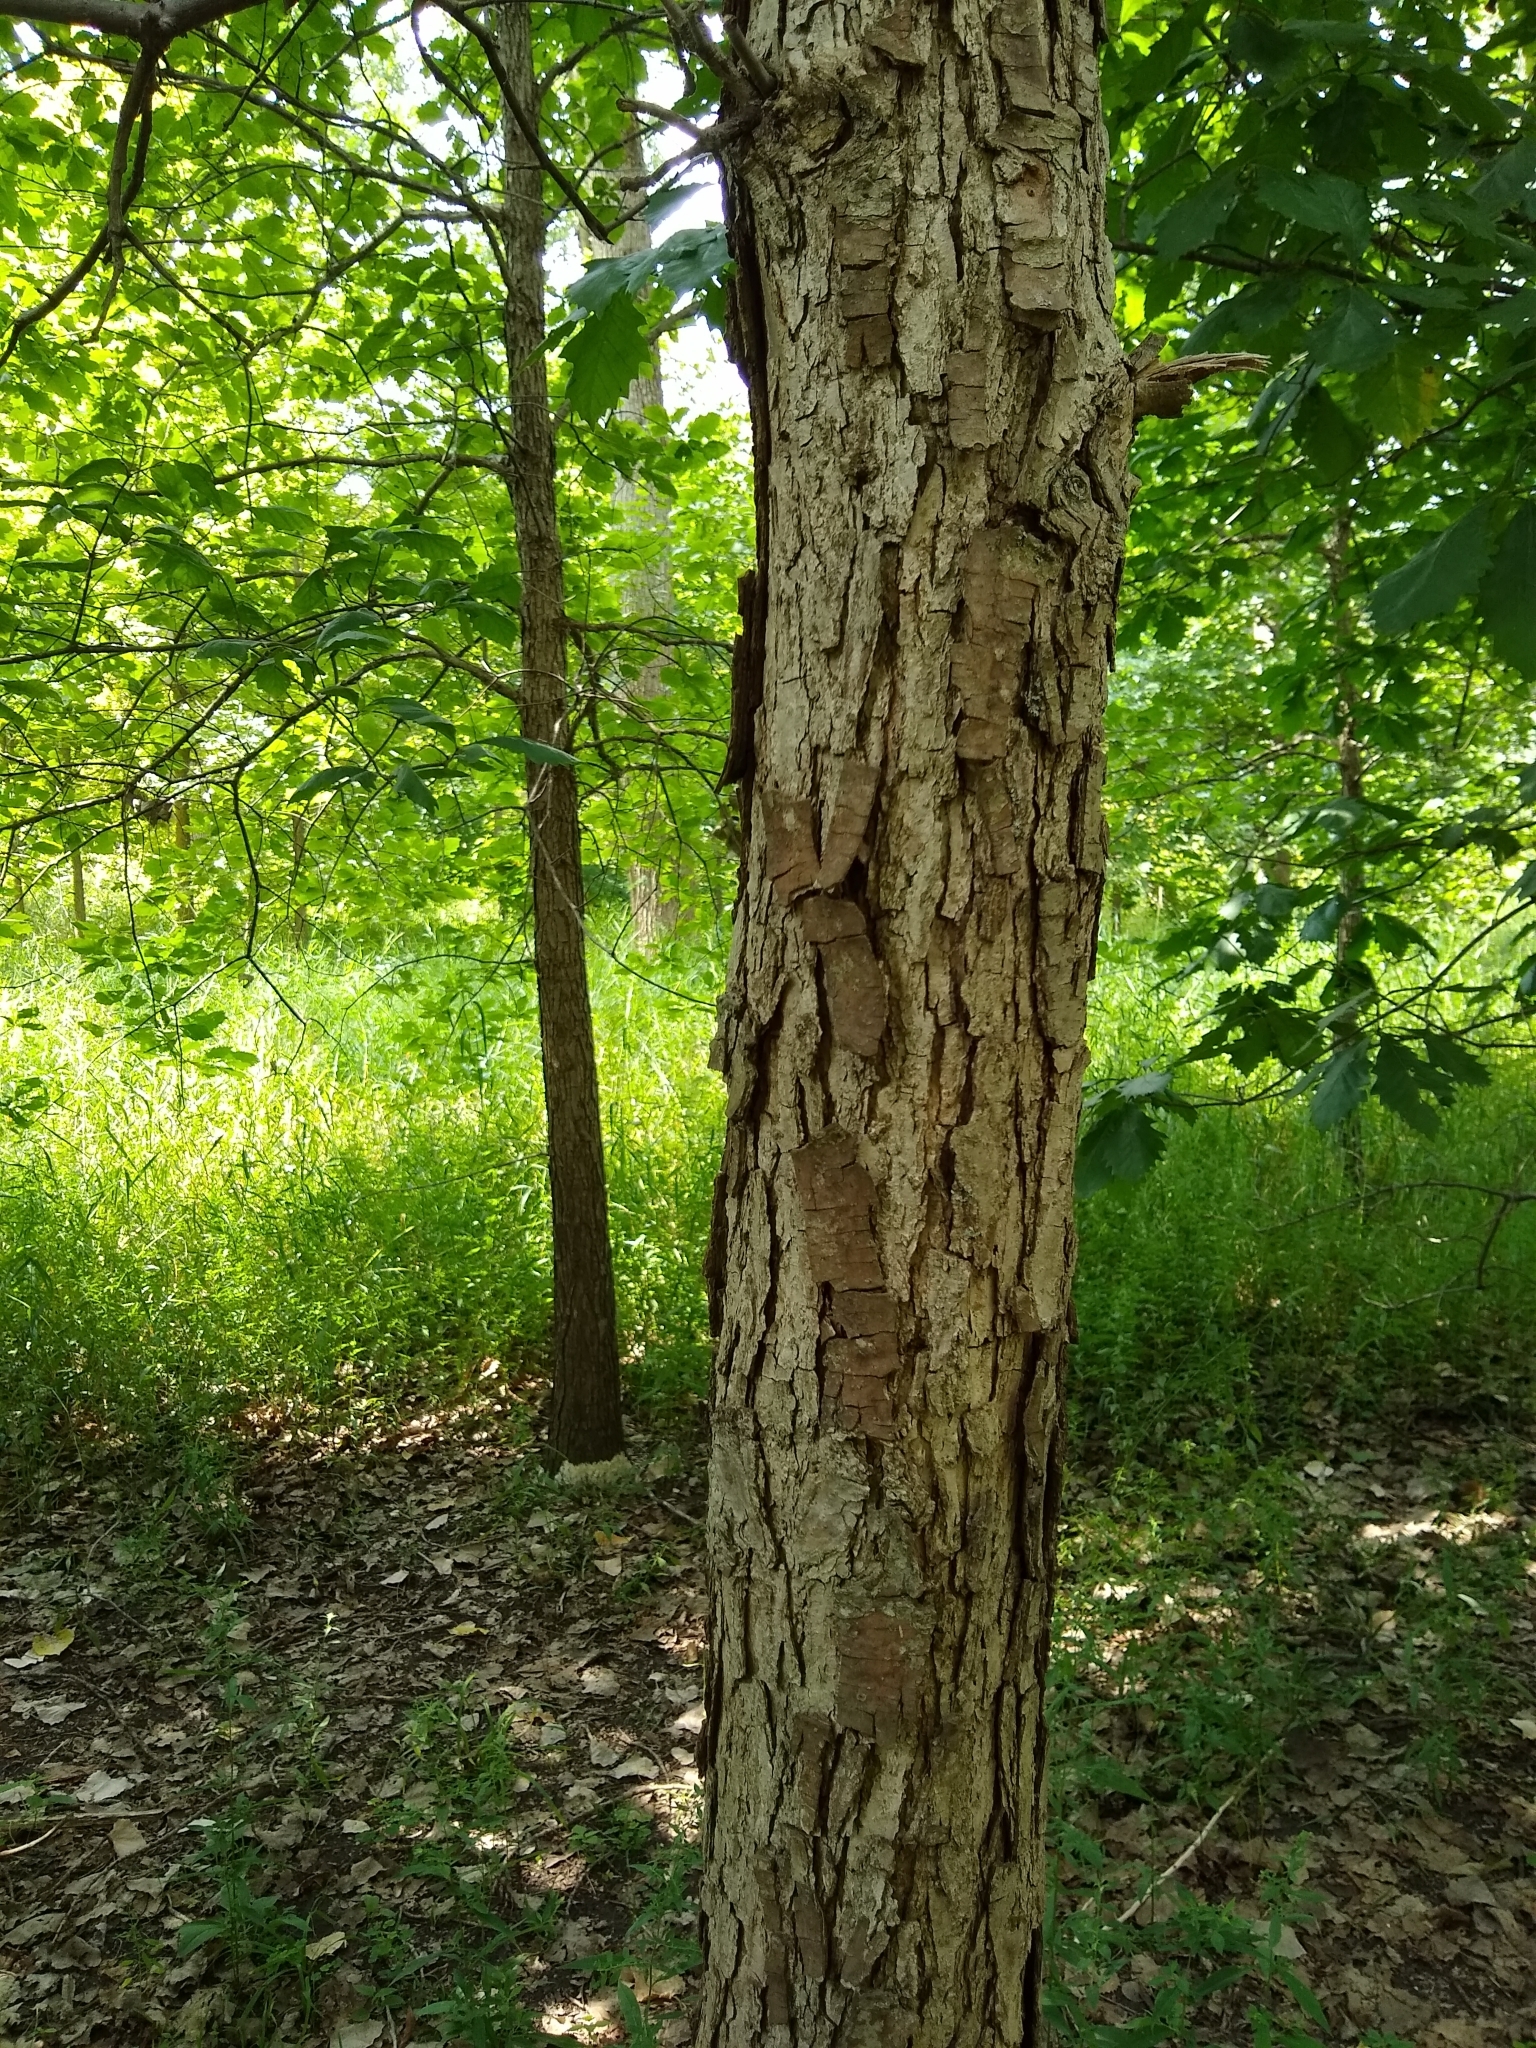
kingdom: Plantae
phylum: Tracheophyta
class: Magnoliopsida
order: Fagales
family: Fagaceae
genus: Quercus
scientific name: Quercus bicolor
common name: Swamp white oak
